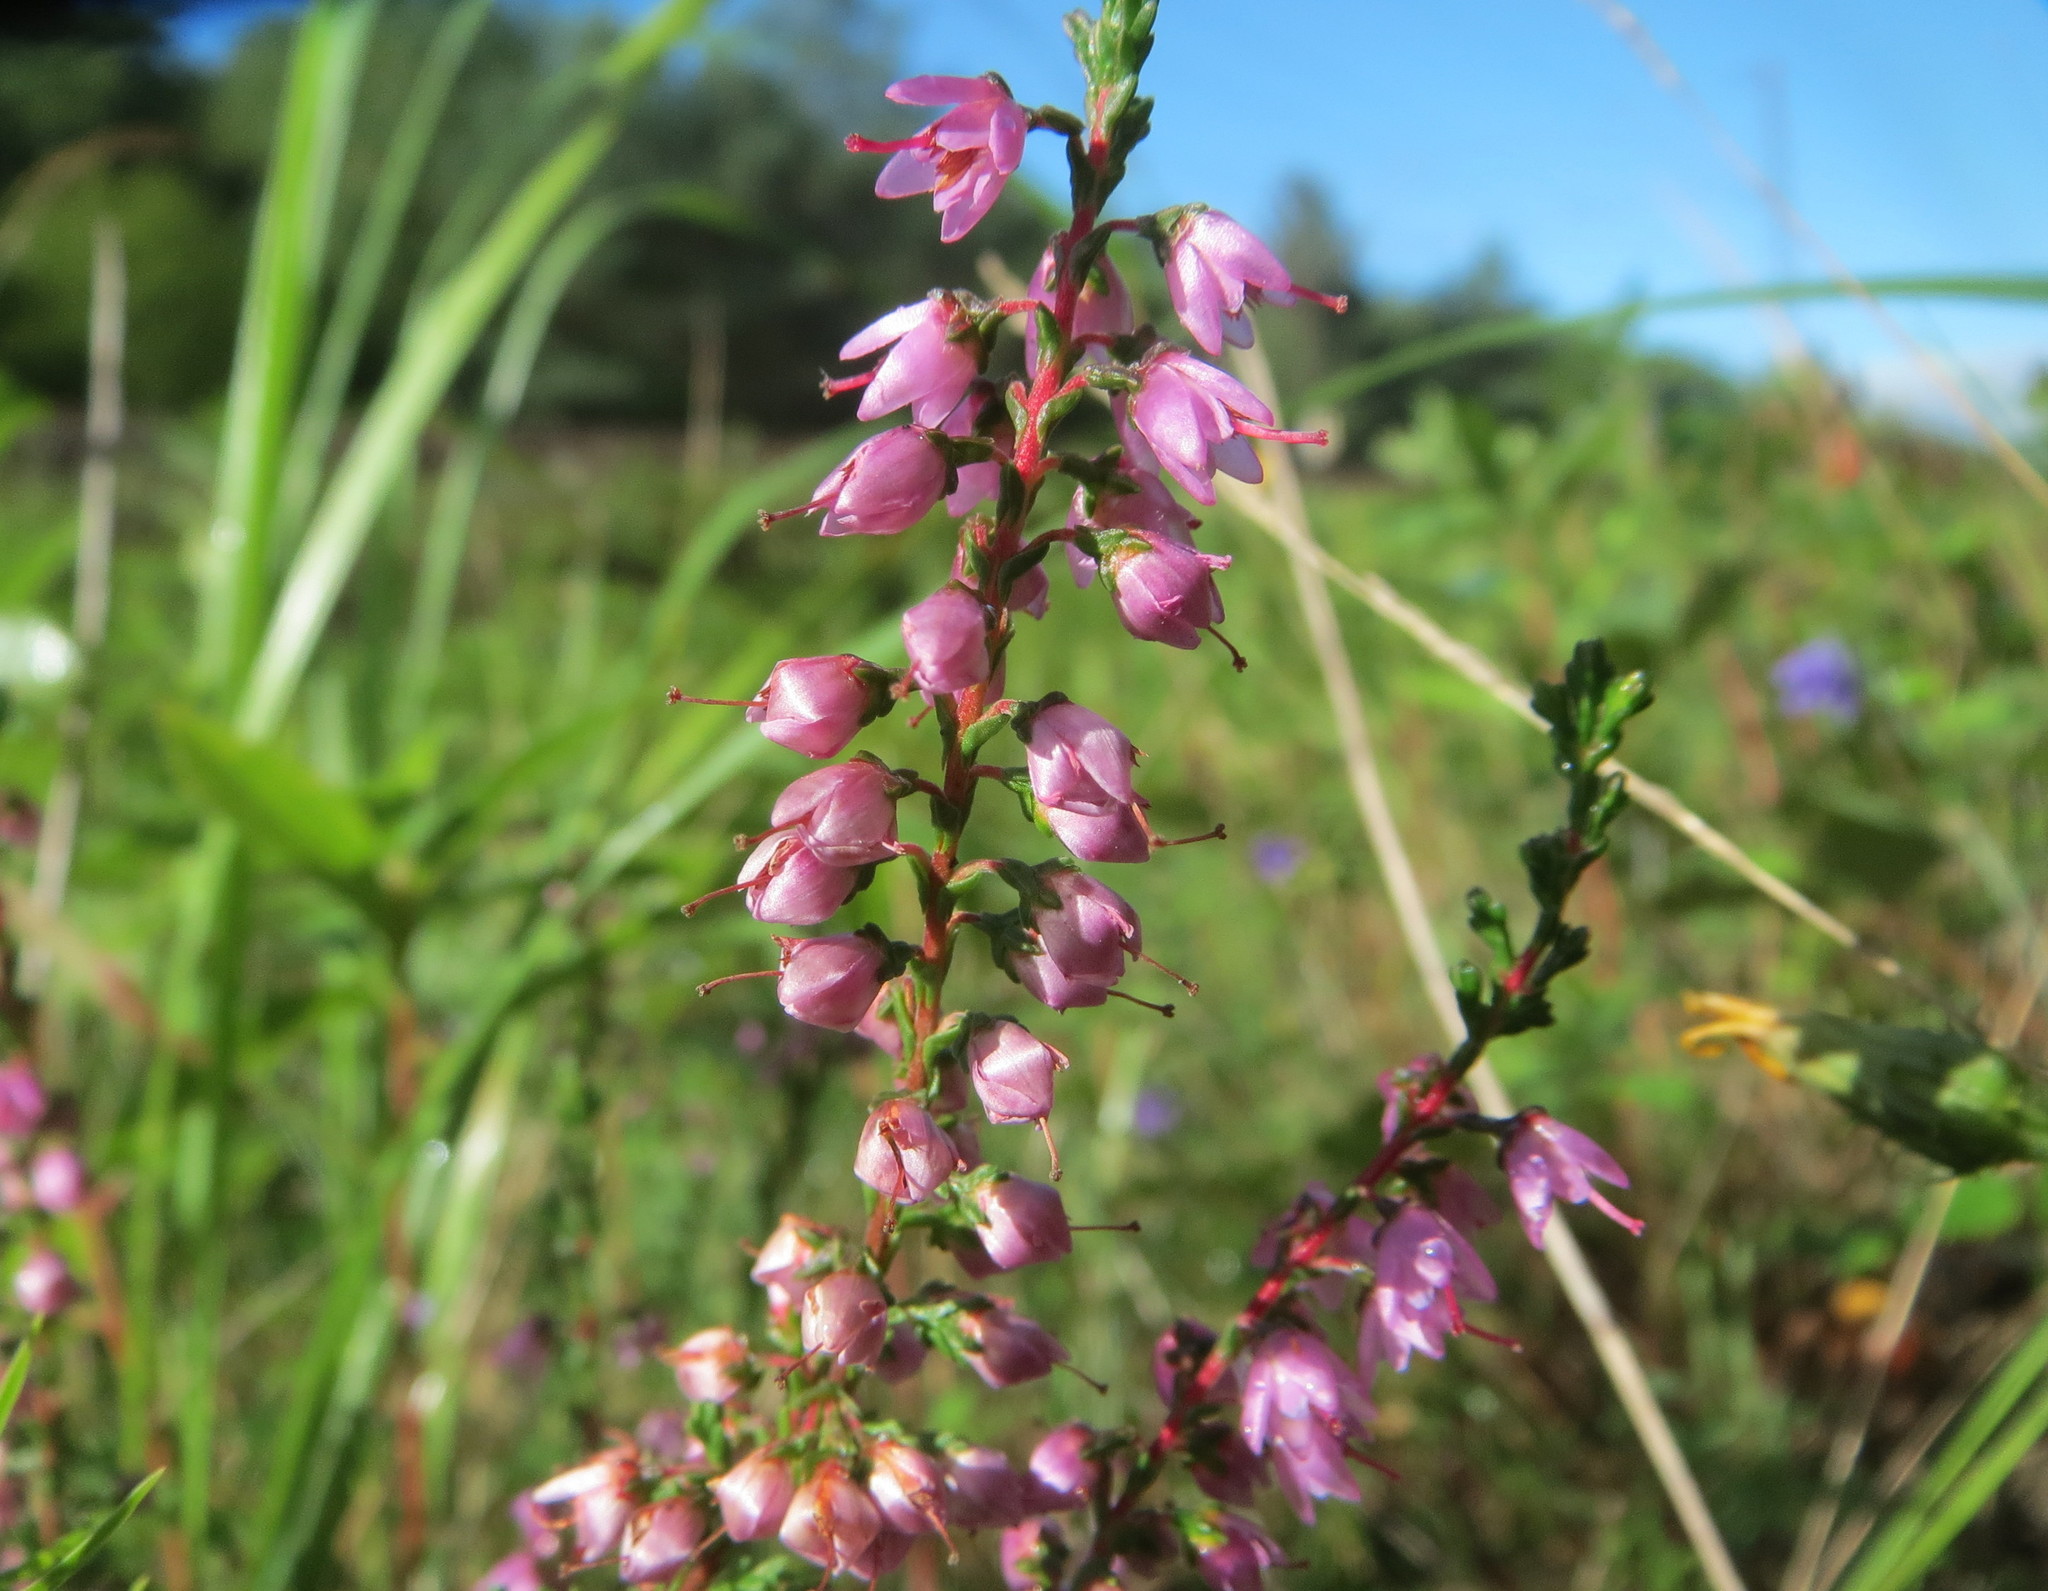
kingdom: Plantae
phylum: Tracheophyta
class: Magnoliopsida
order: Ericales
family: Ericaceae
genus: Calluna
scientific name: Calluna vulgaris
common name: Heather
